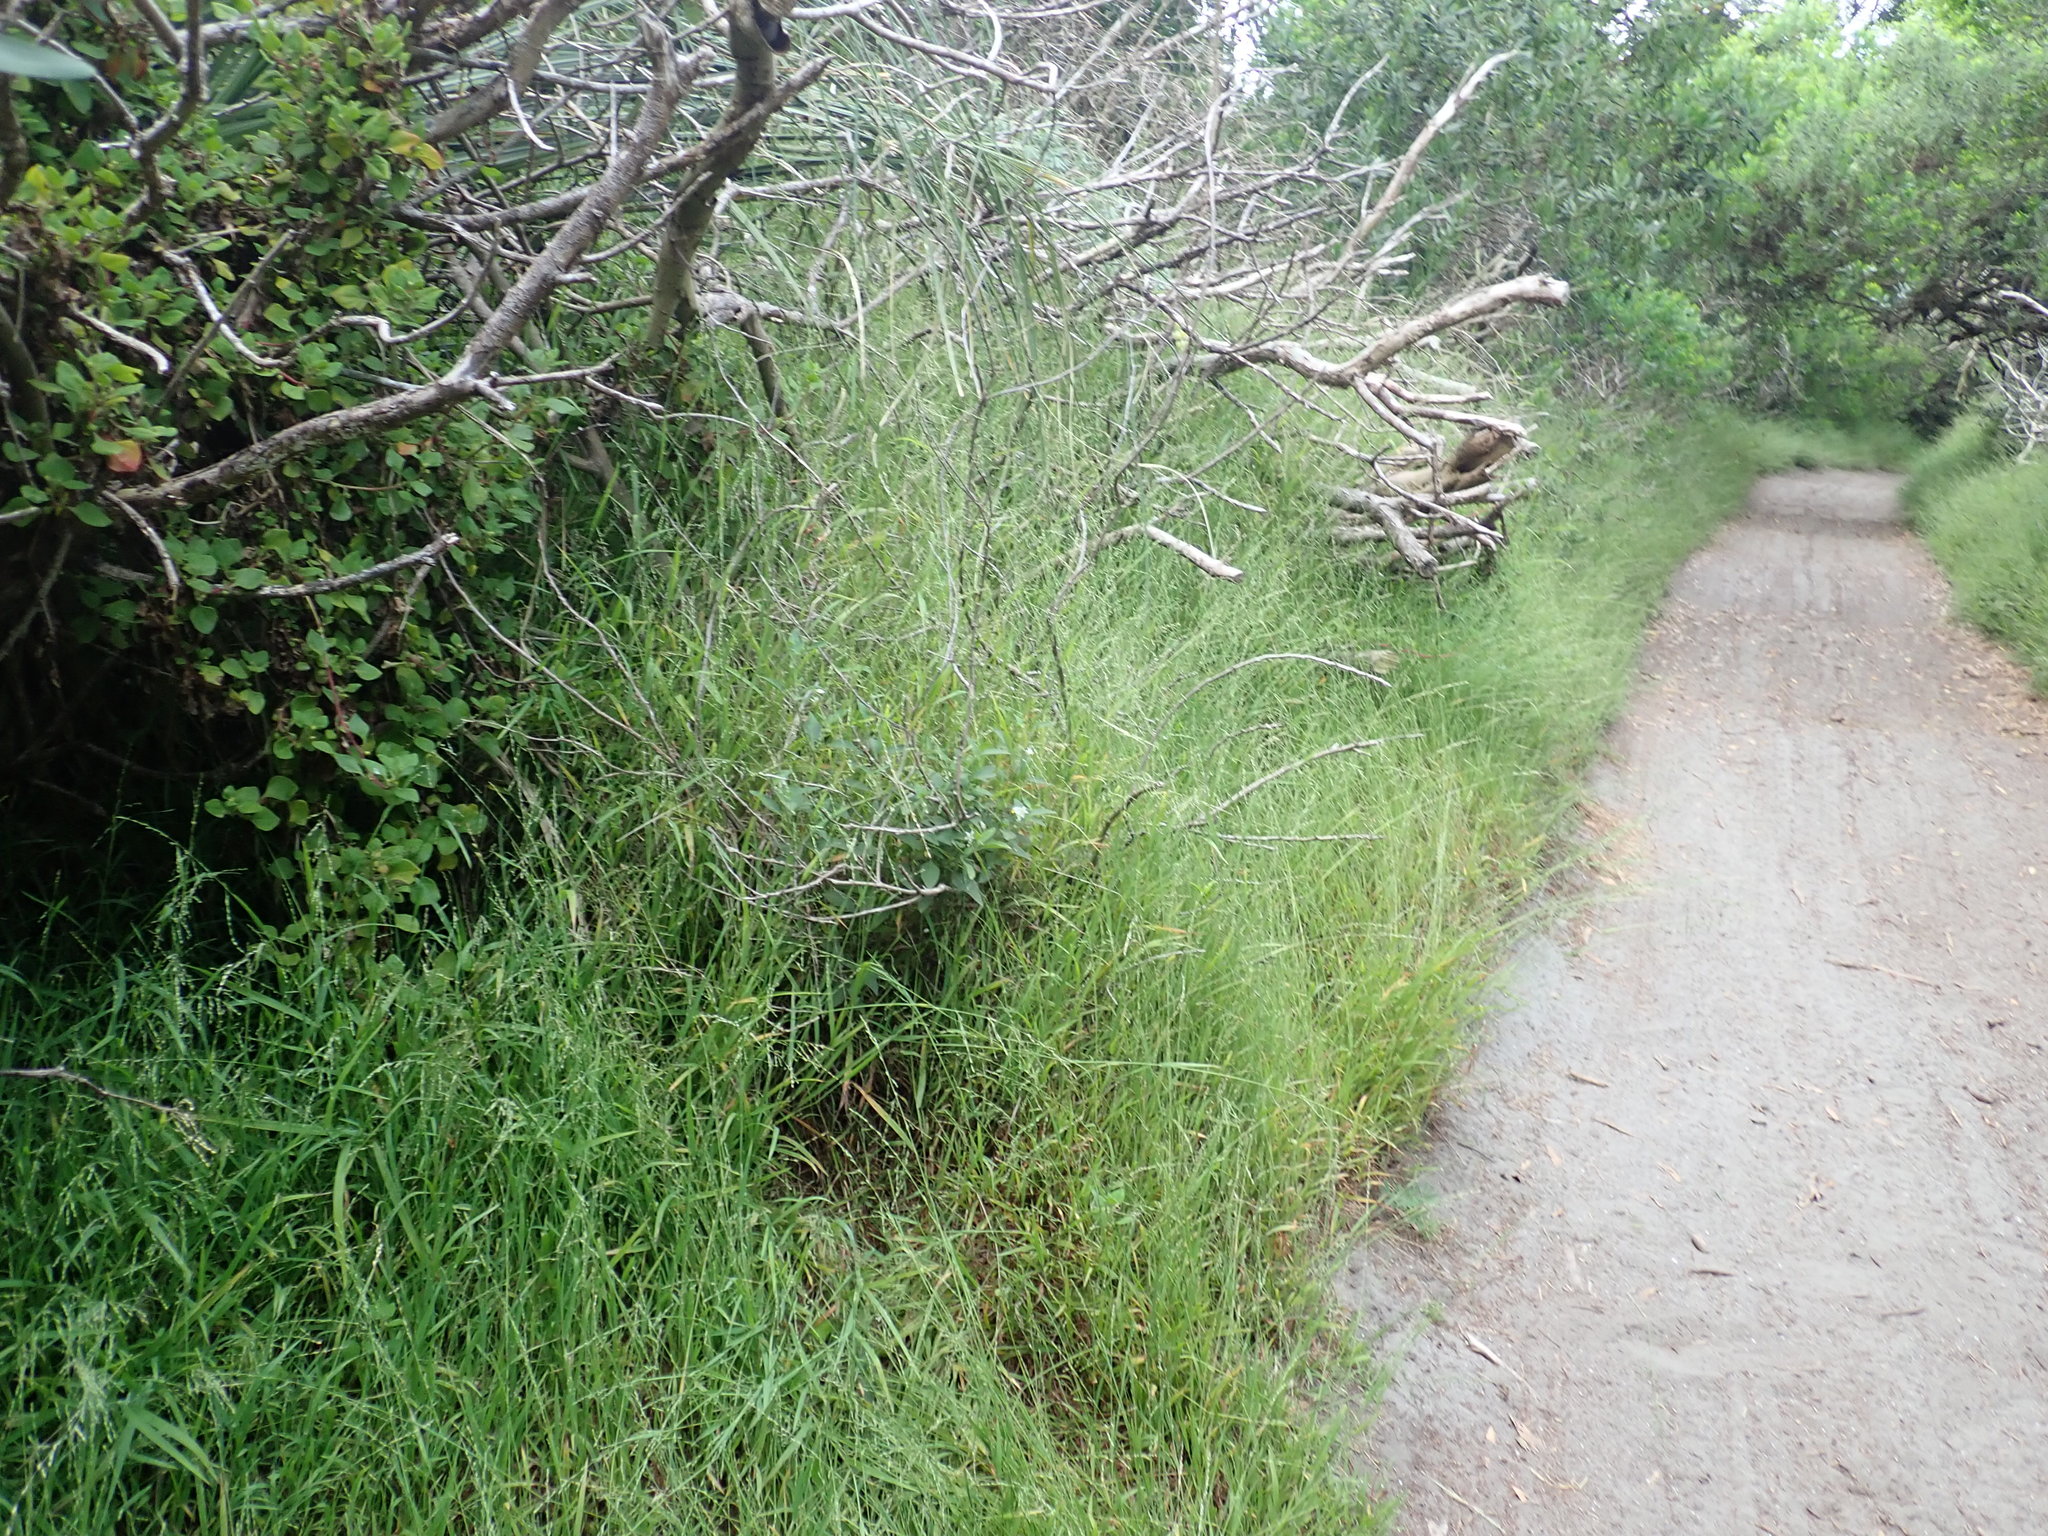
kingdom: Plantae
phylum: Tracheophyta
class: Magnoliopsida
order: Solanales
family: Solanaceae
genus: Solanum
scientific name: Solanum chenopodioides
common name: Tall nightshade
